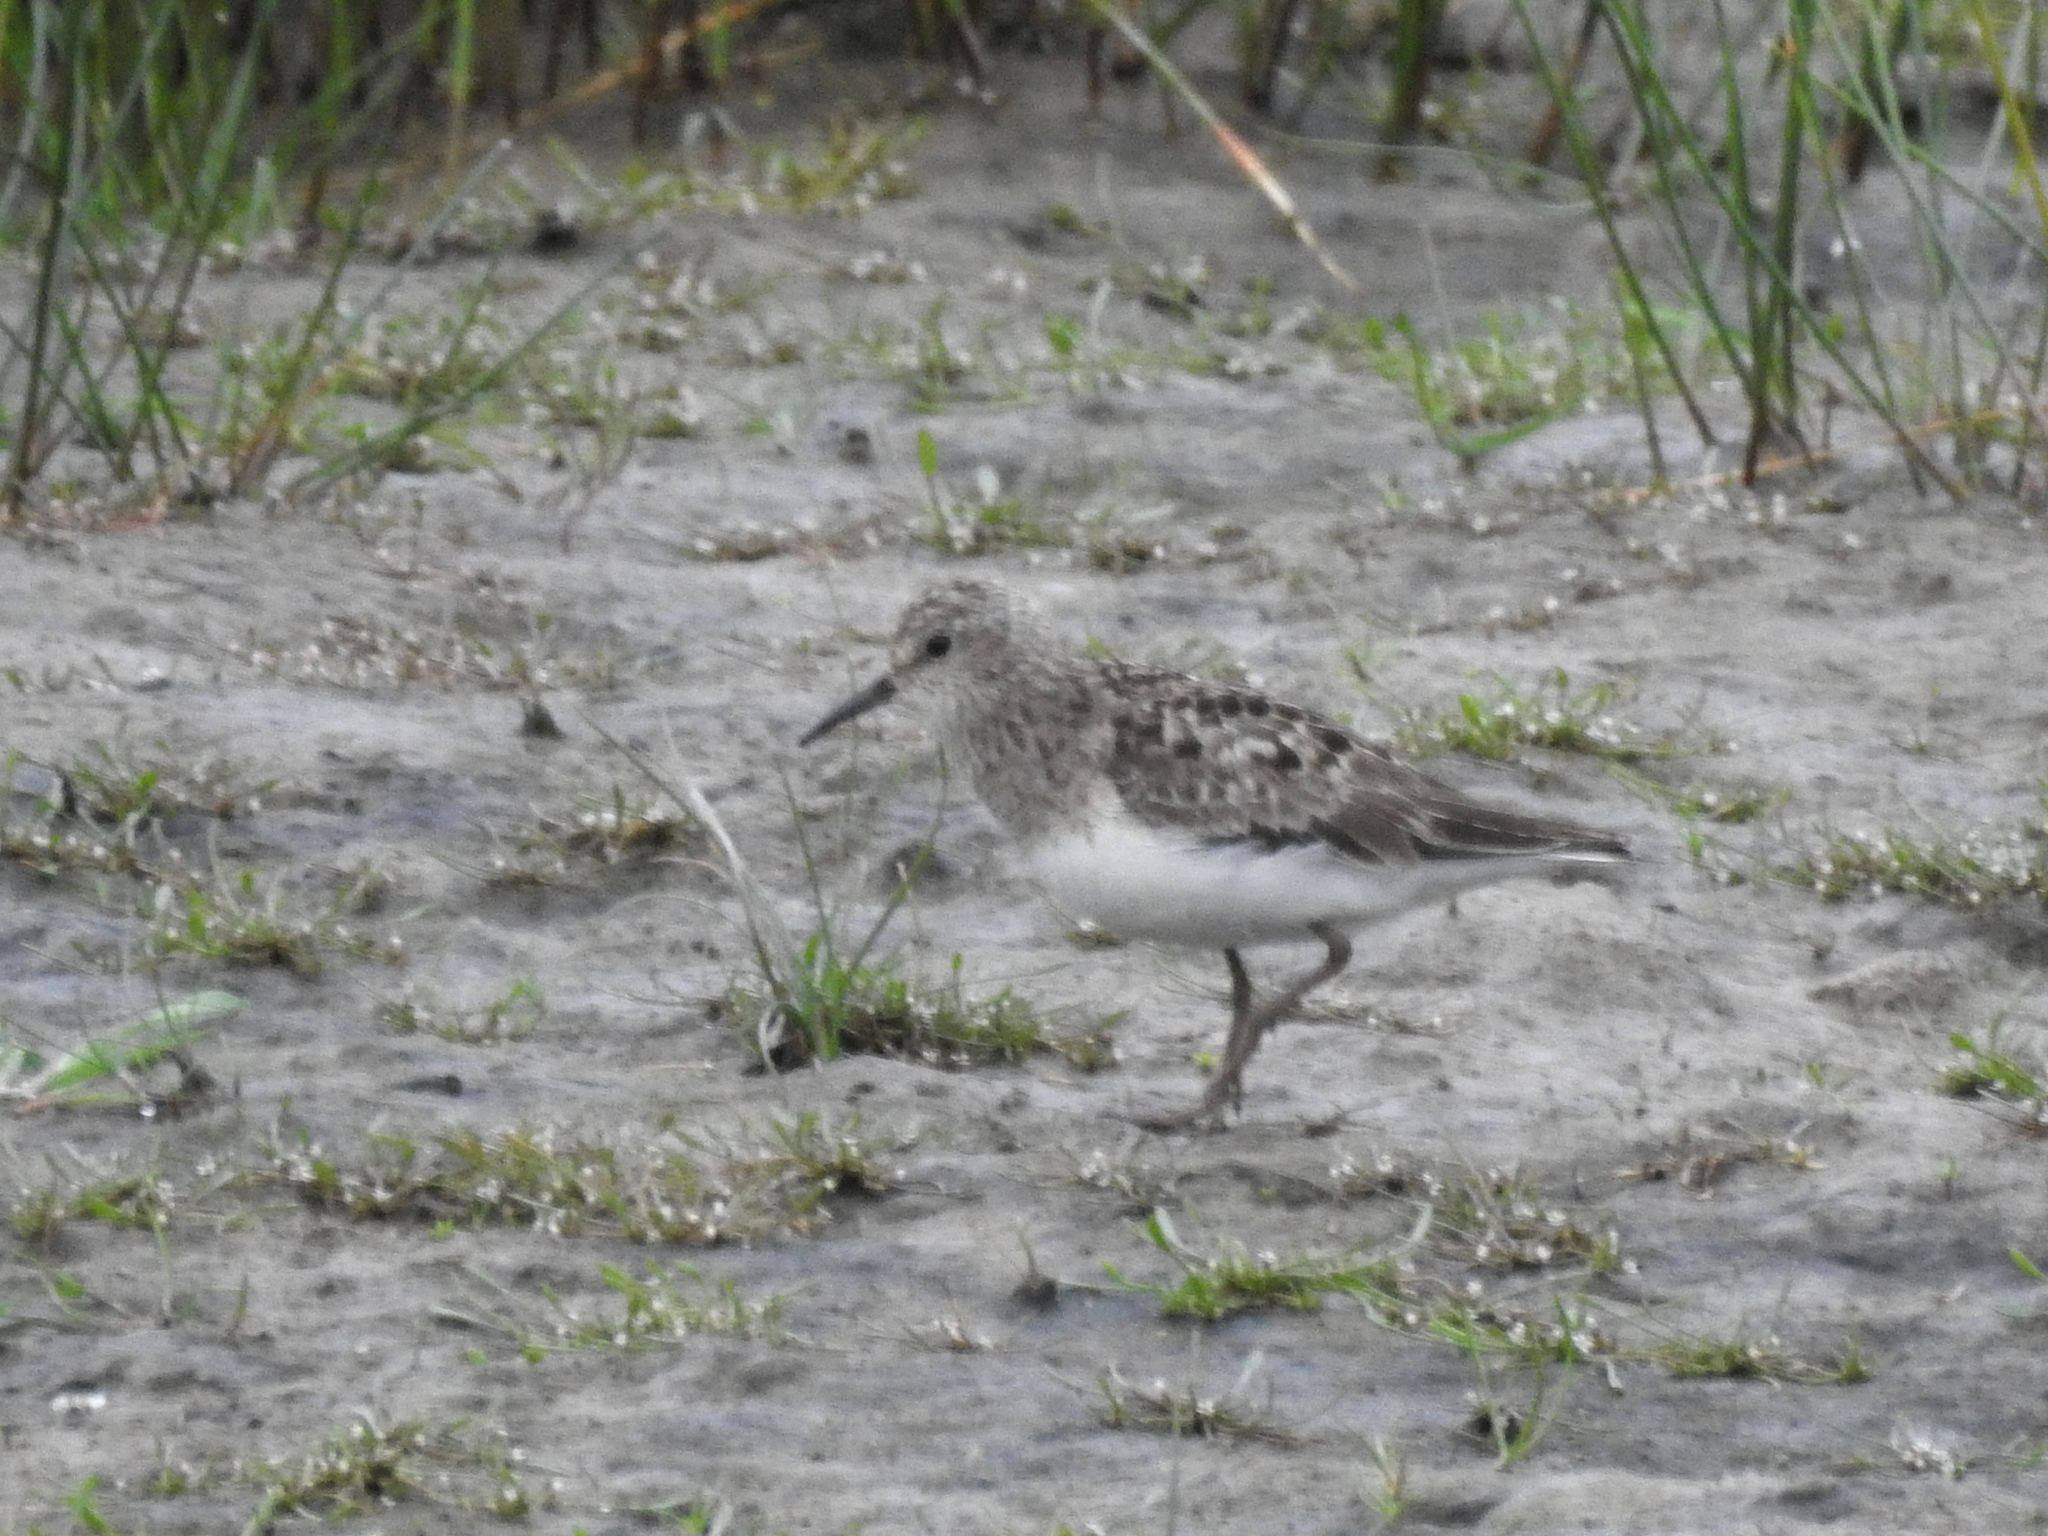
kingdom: Animalia
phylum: Chordata
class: Aves
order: Charadriiformes
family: Scolopacidae
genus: Calidris
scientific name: Calidris temminckii
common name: Temminck's stint
